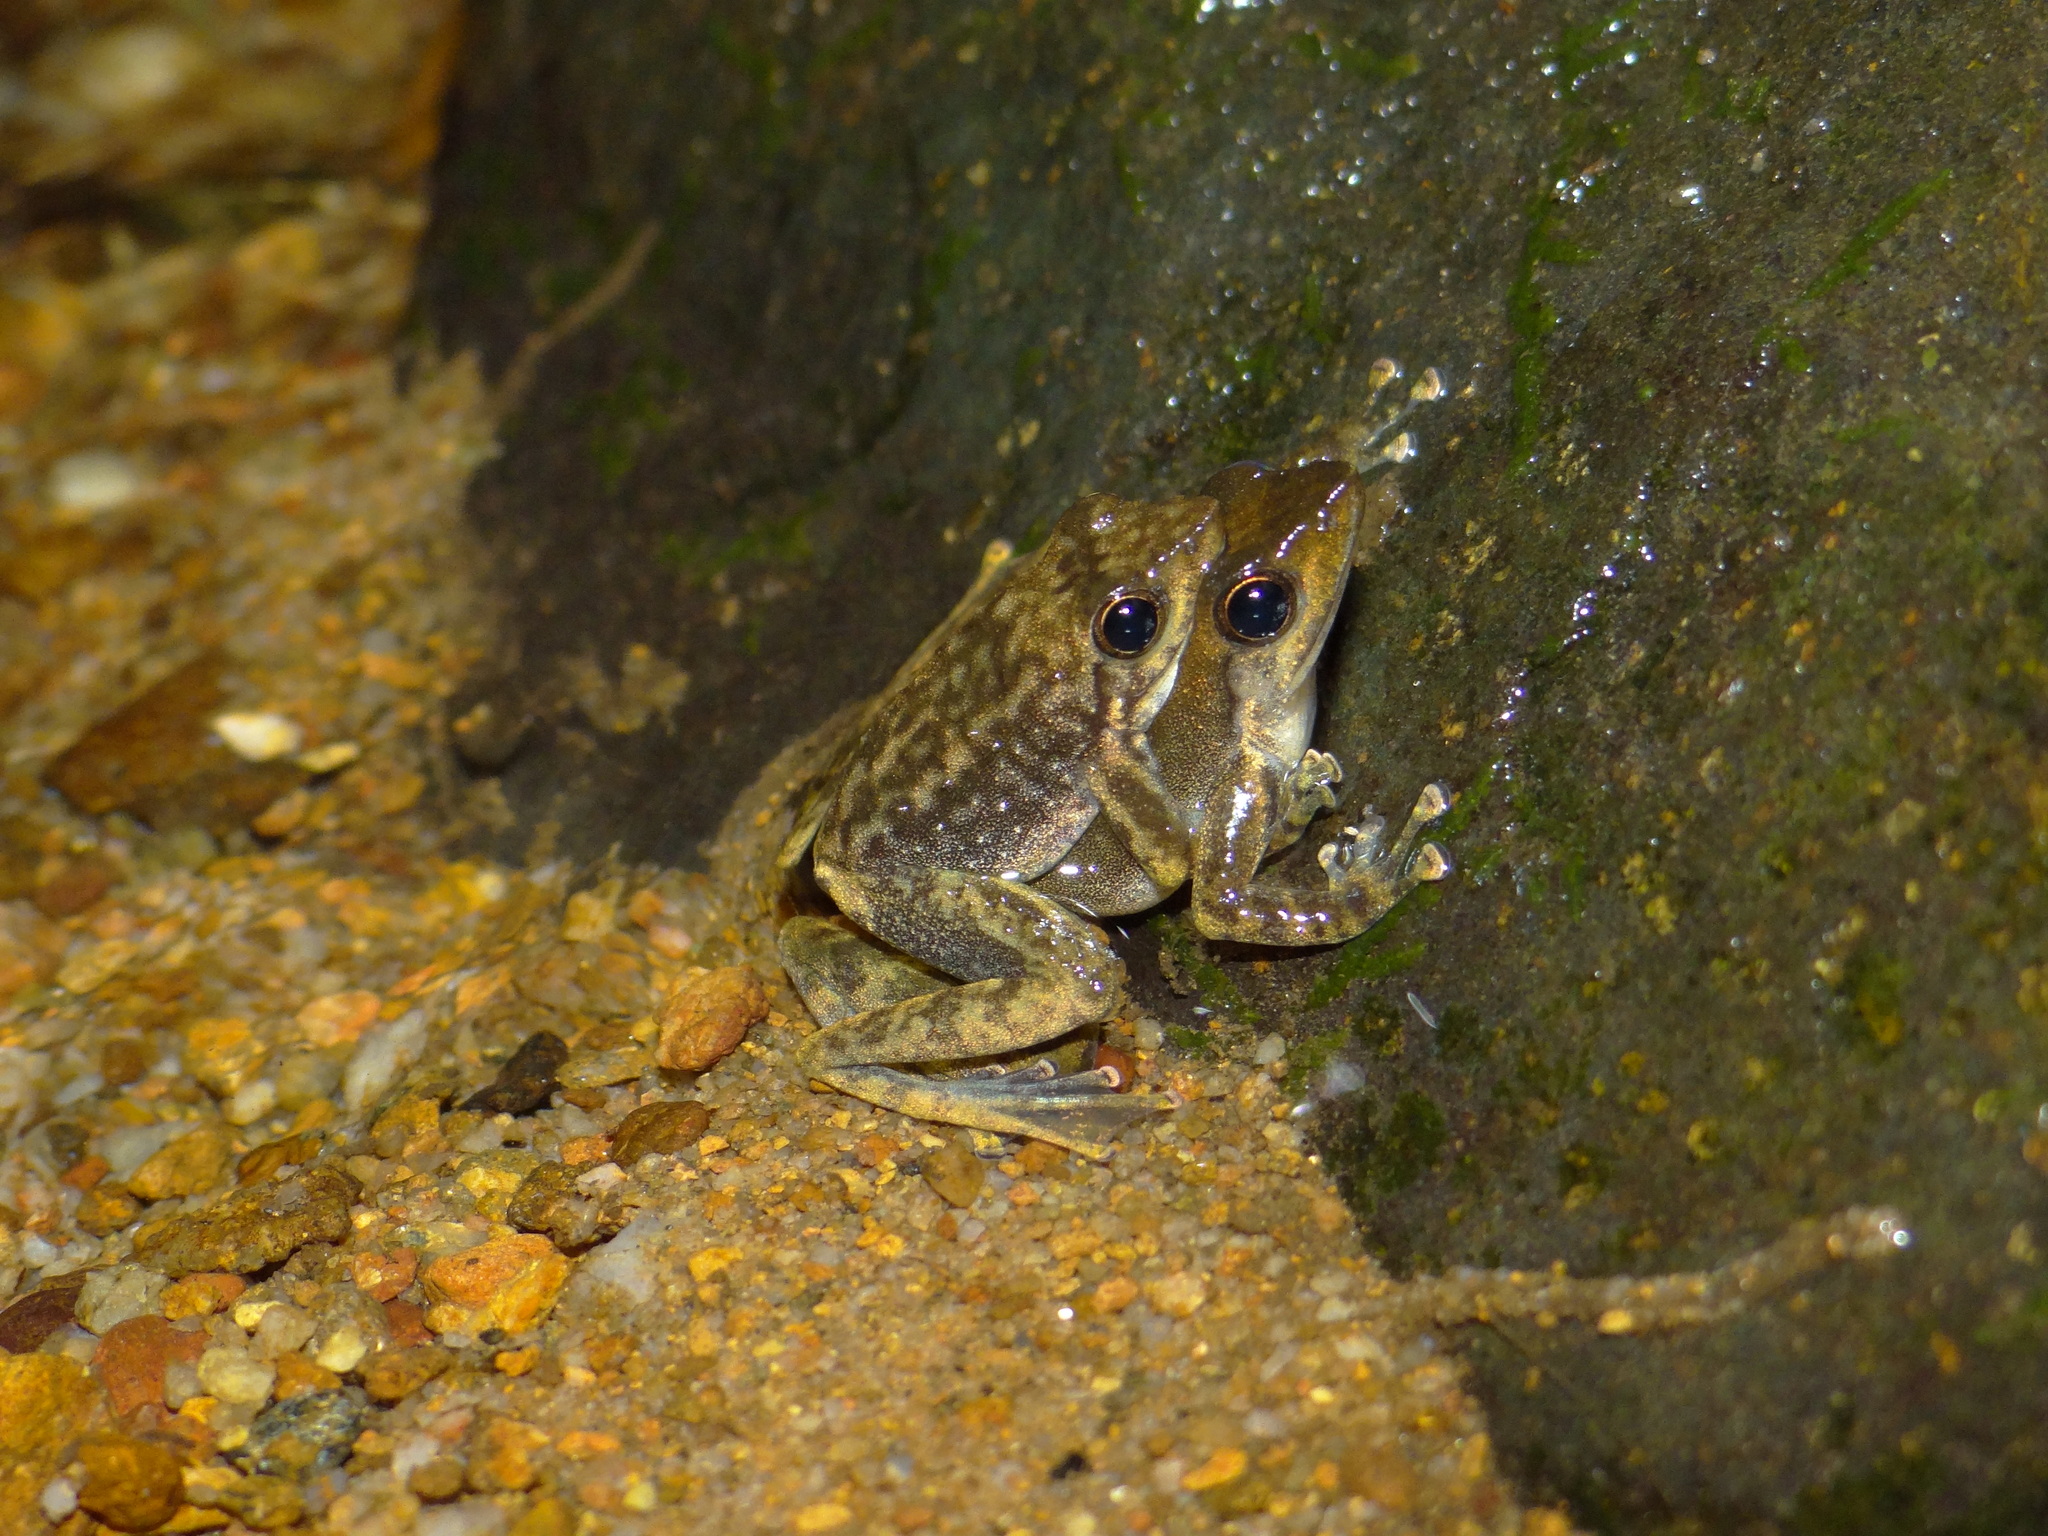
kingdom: Animalia
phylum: Chordata
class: Amphibia
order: Anura
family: Micrixalidae
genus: Micrixalus
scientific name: Micrixalus saxicola
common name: Black torrent frog
